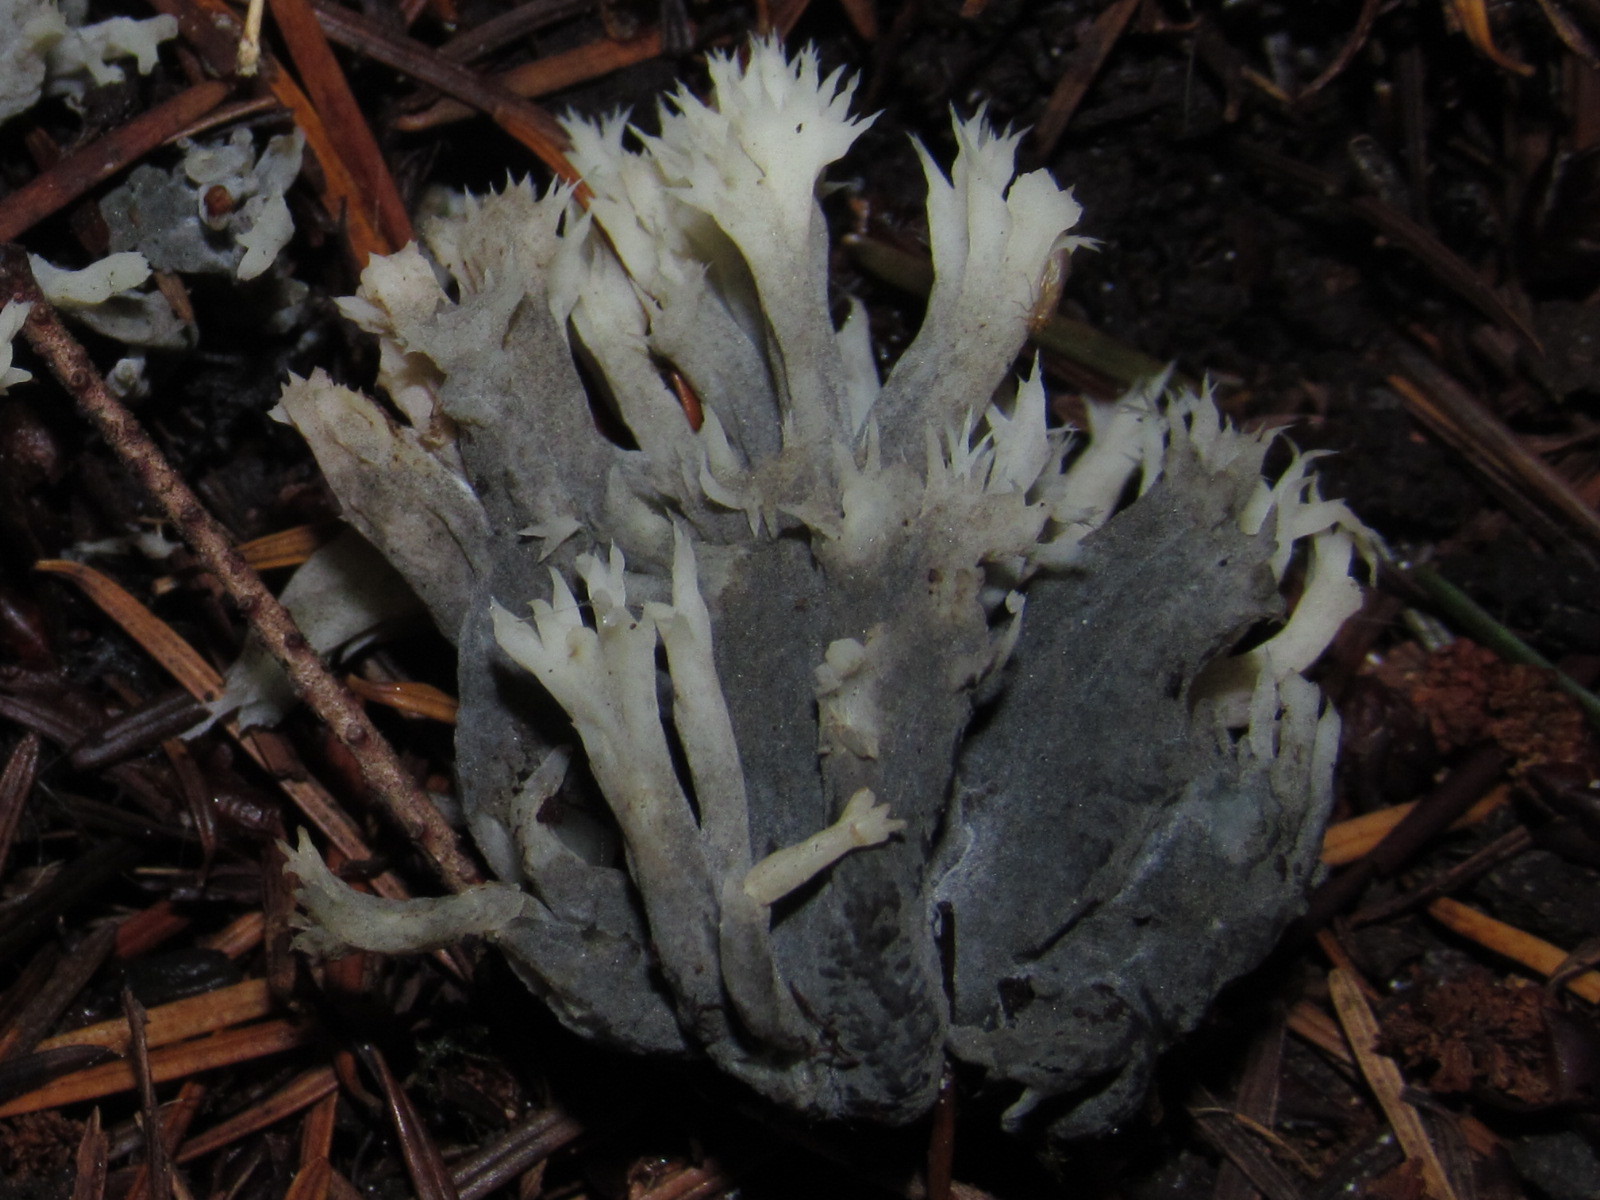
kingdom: Fungi
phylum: Ascomycota
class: Sordariomycetes
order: Sordariales
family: Helminthosphaeriaceae
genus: Helminthosphaeria
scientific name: Helminthosphaeria clavariarum
